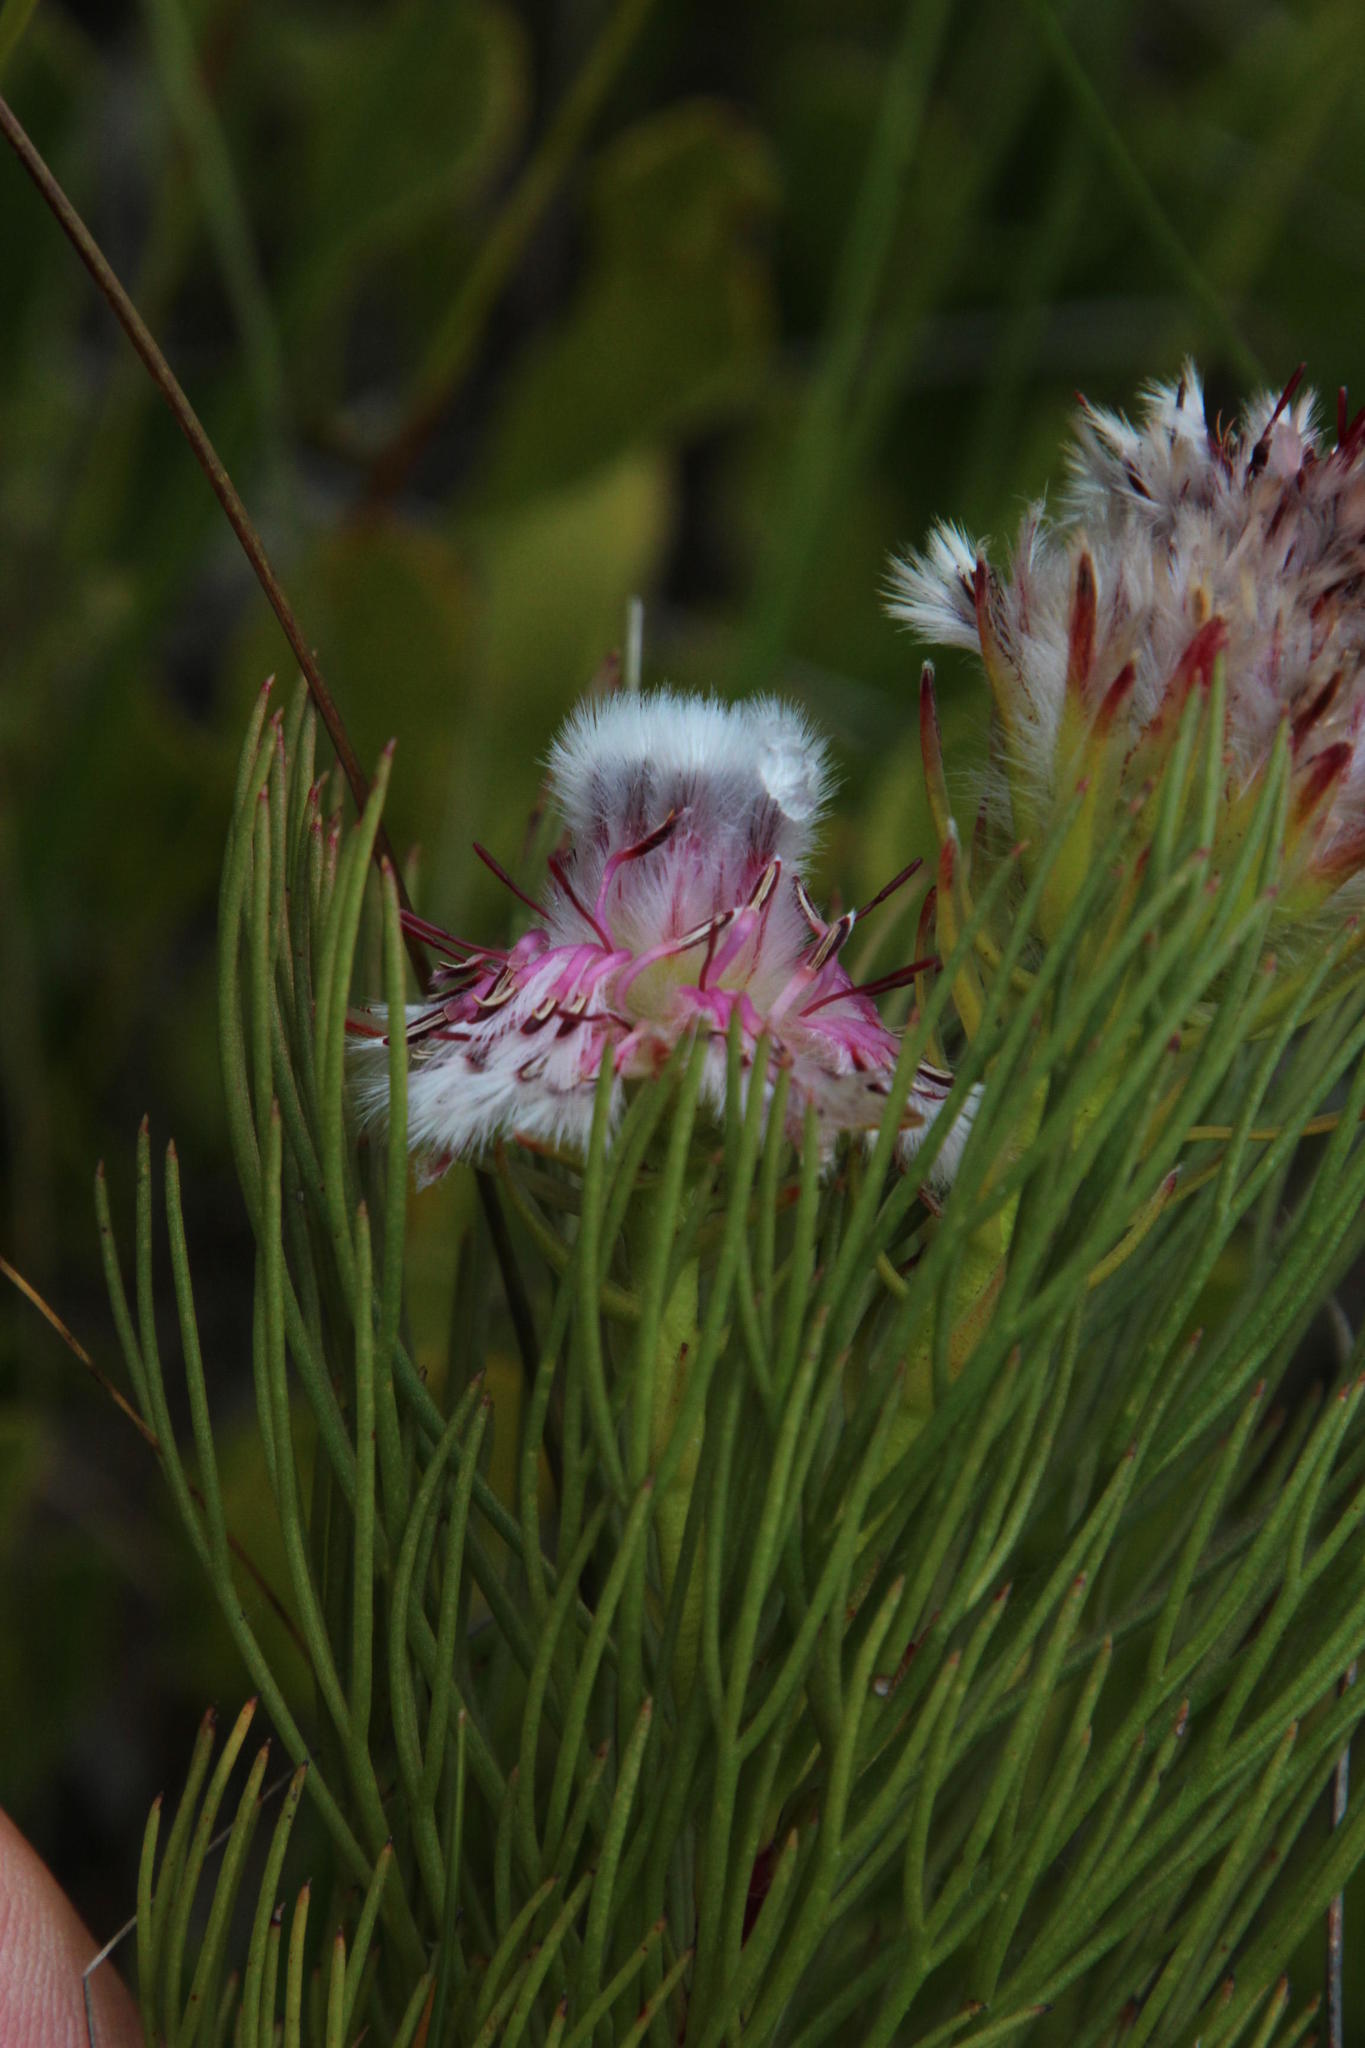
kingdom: Plantae
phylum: Tracheophyta
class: Magnoliopsida
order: Proteales
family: Proteaceae
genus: Serruria
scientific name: Serruria phylicoides
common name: Bearded spiderhead
